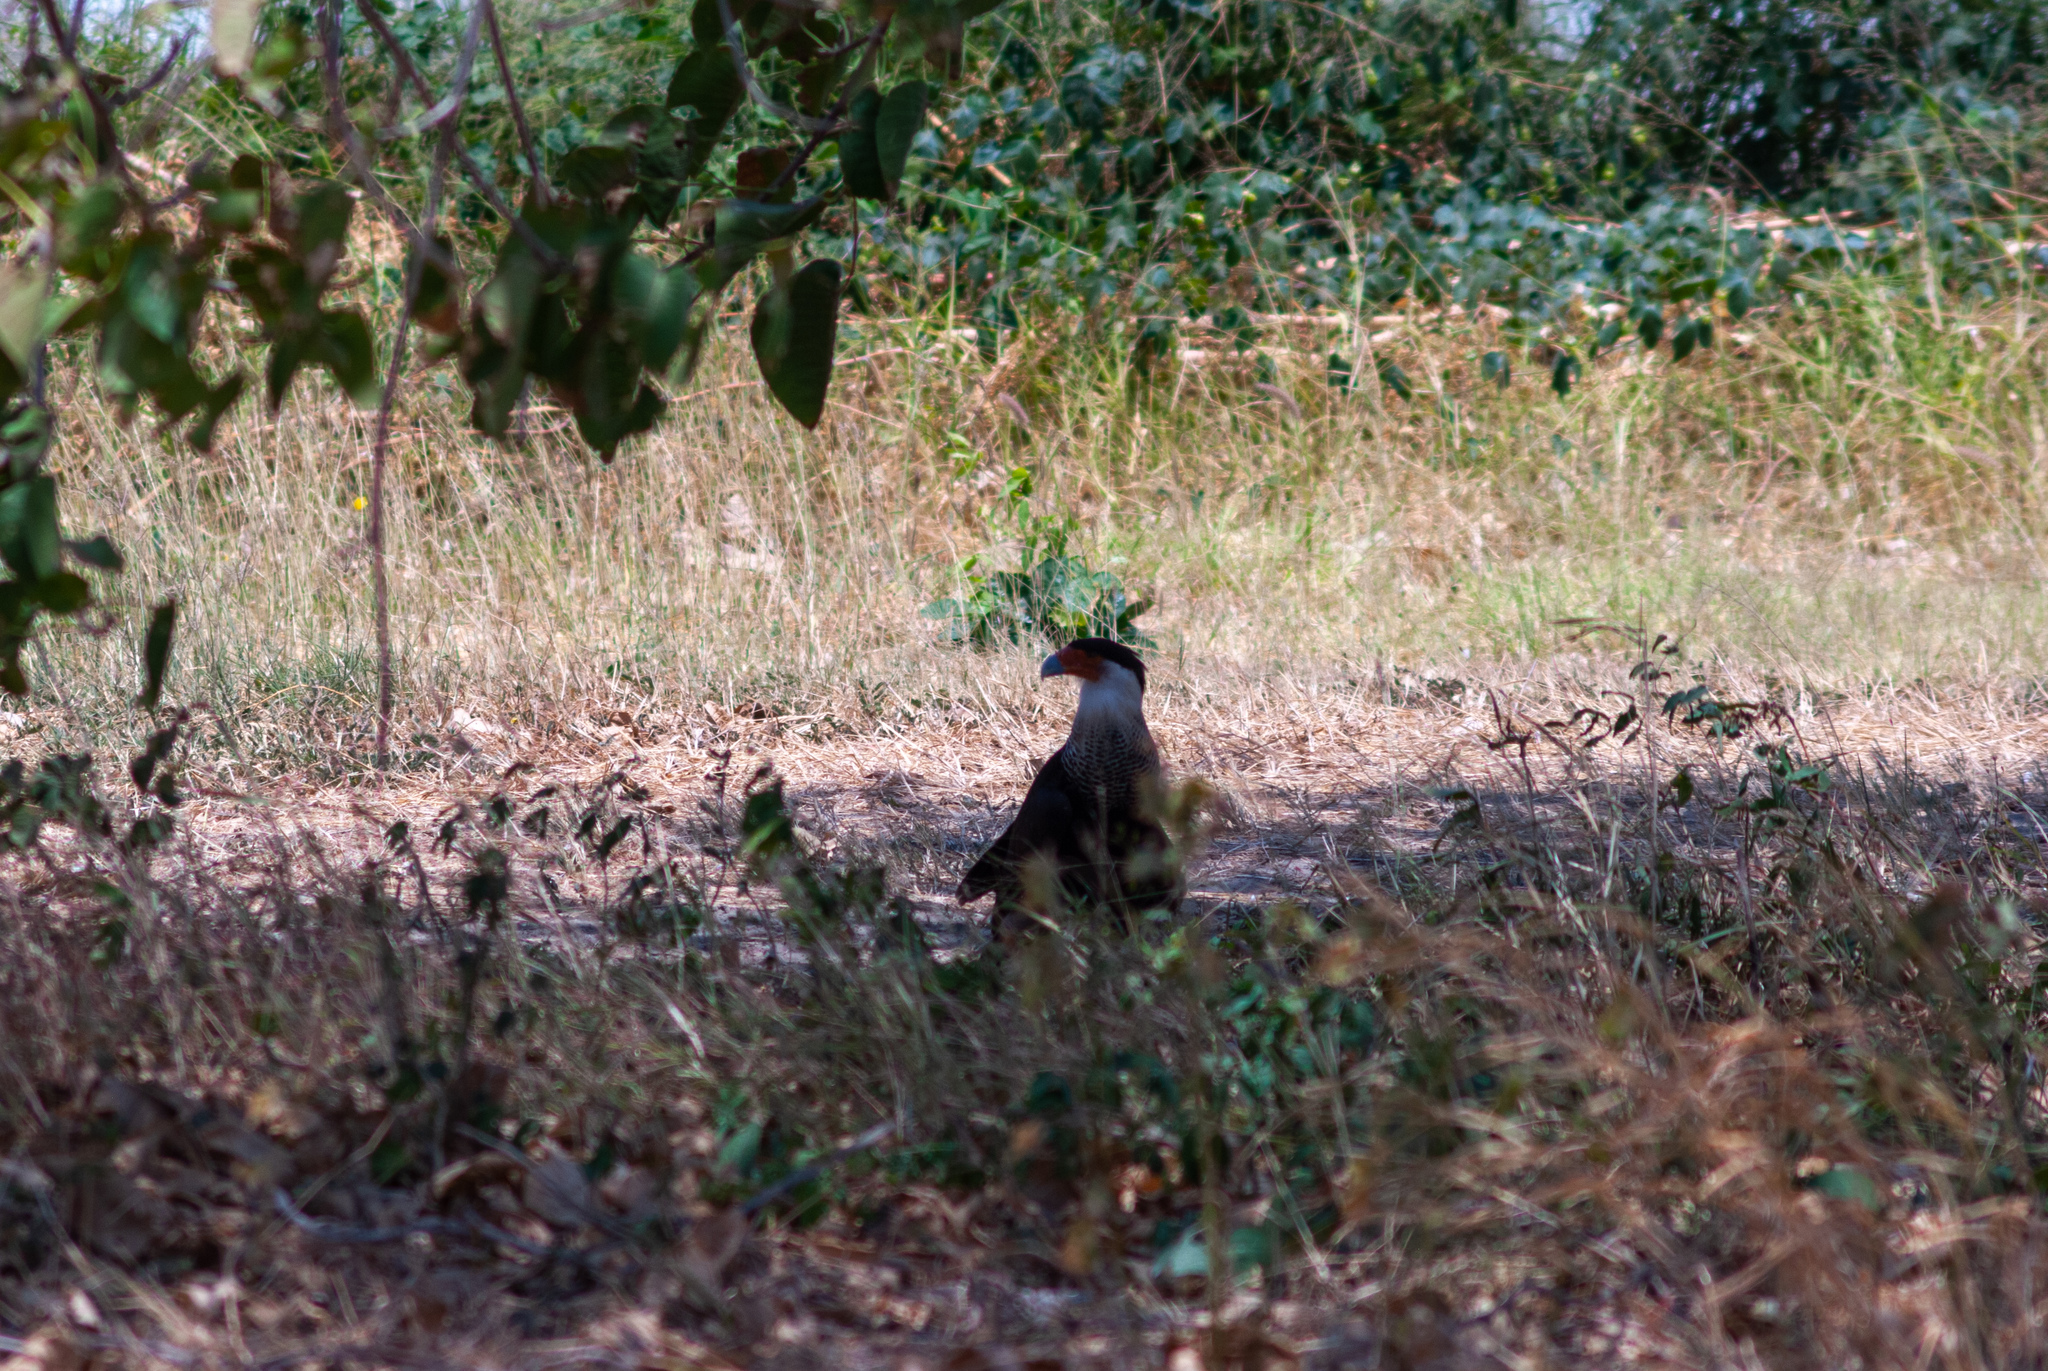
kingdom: Animalia
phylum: Chordata
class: Aves
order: Falconiformes
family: Falconidae
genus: Caracara
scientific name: Caracara plancus
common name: Southern caracara
